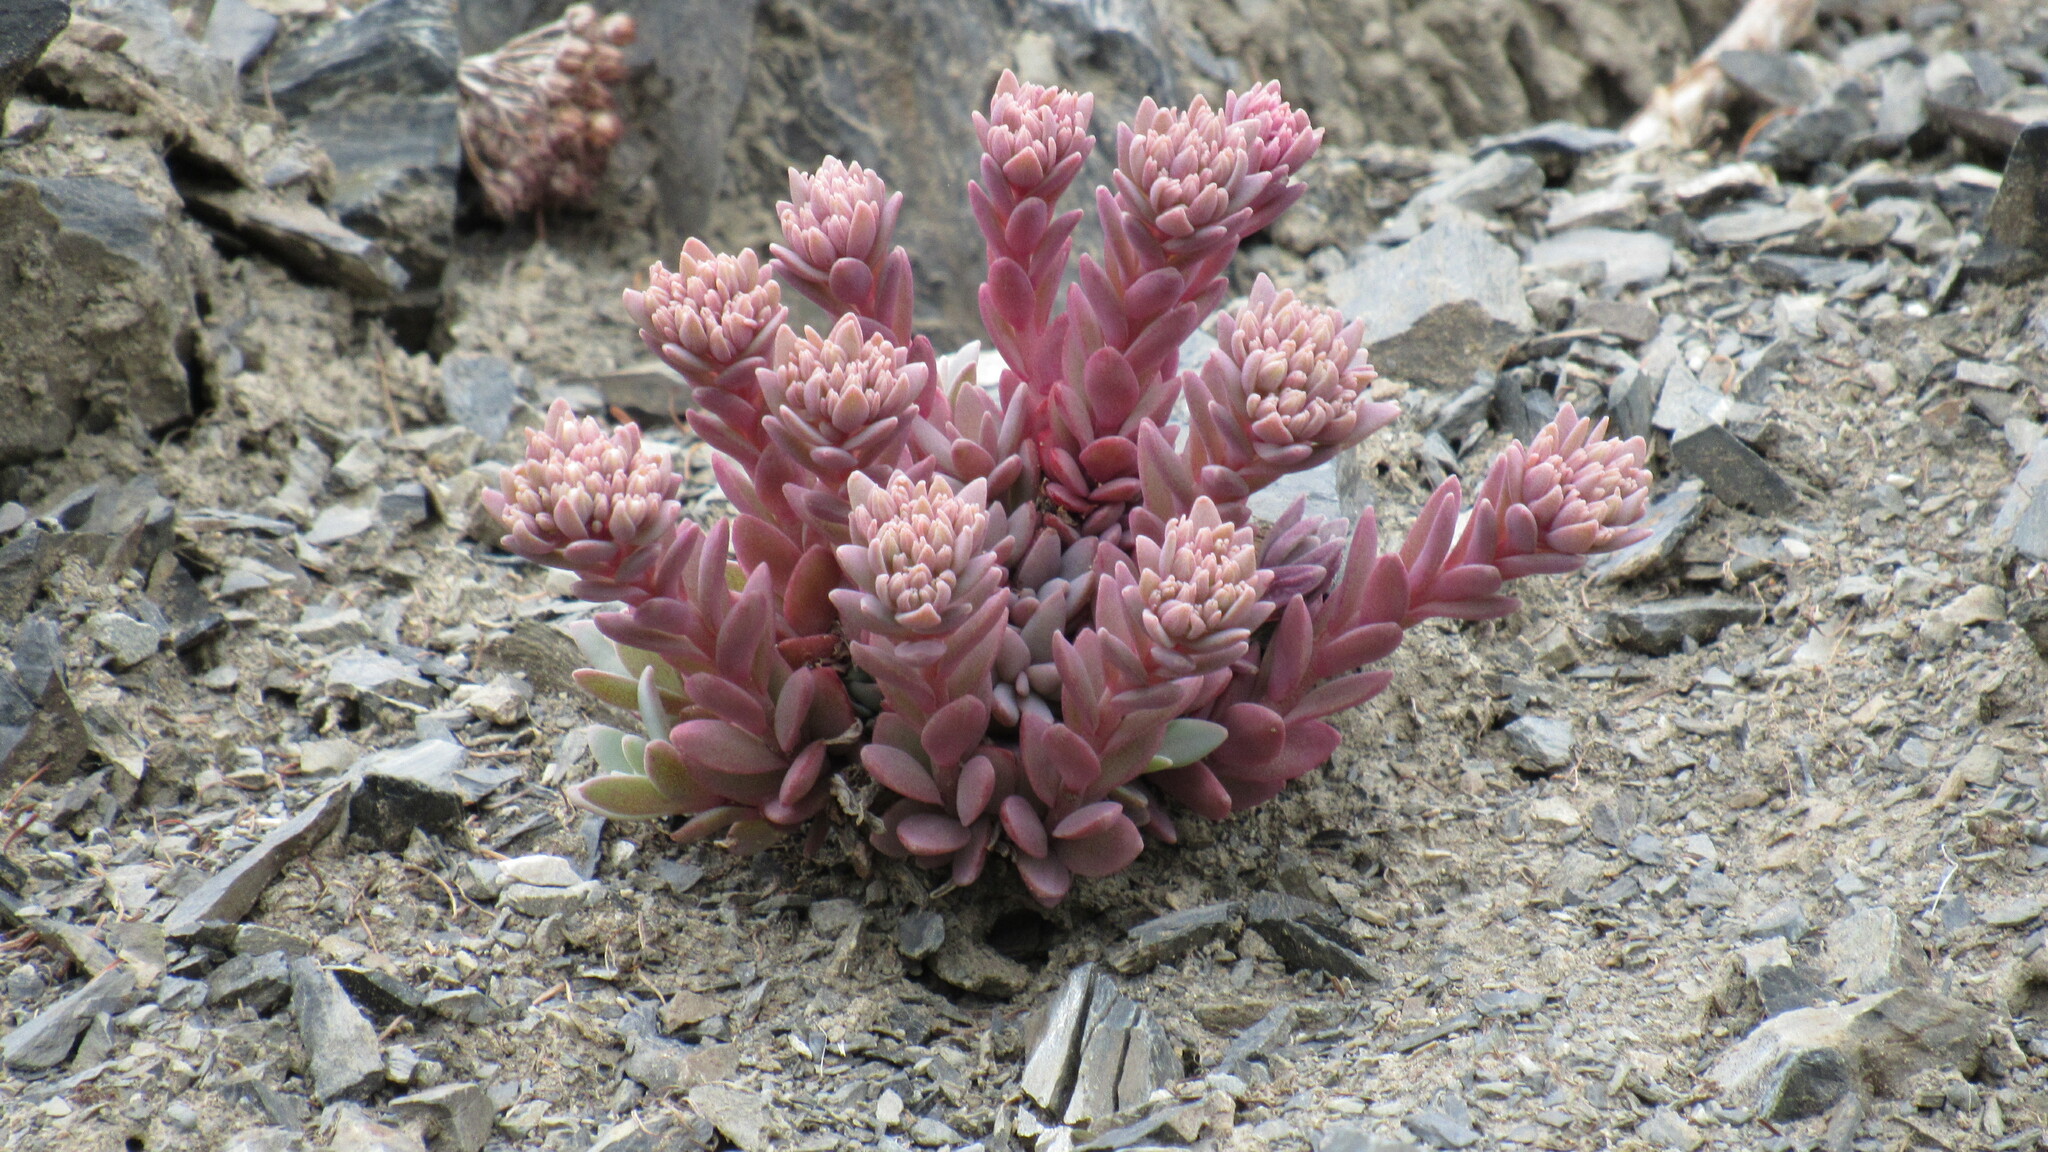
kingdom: Plantae
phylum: Tracheophyta
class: Magnoliopsida
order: Saxifragales
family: Crassulaceae
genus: Hylotelephium
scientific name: Hylotelephium cyaneum
